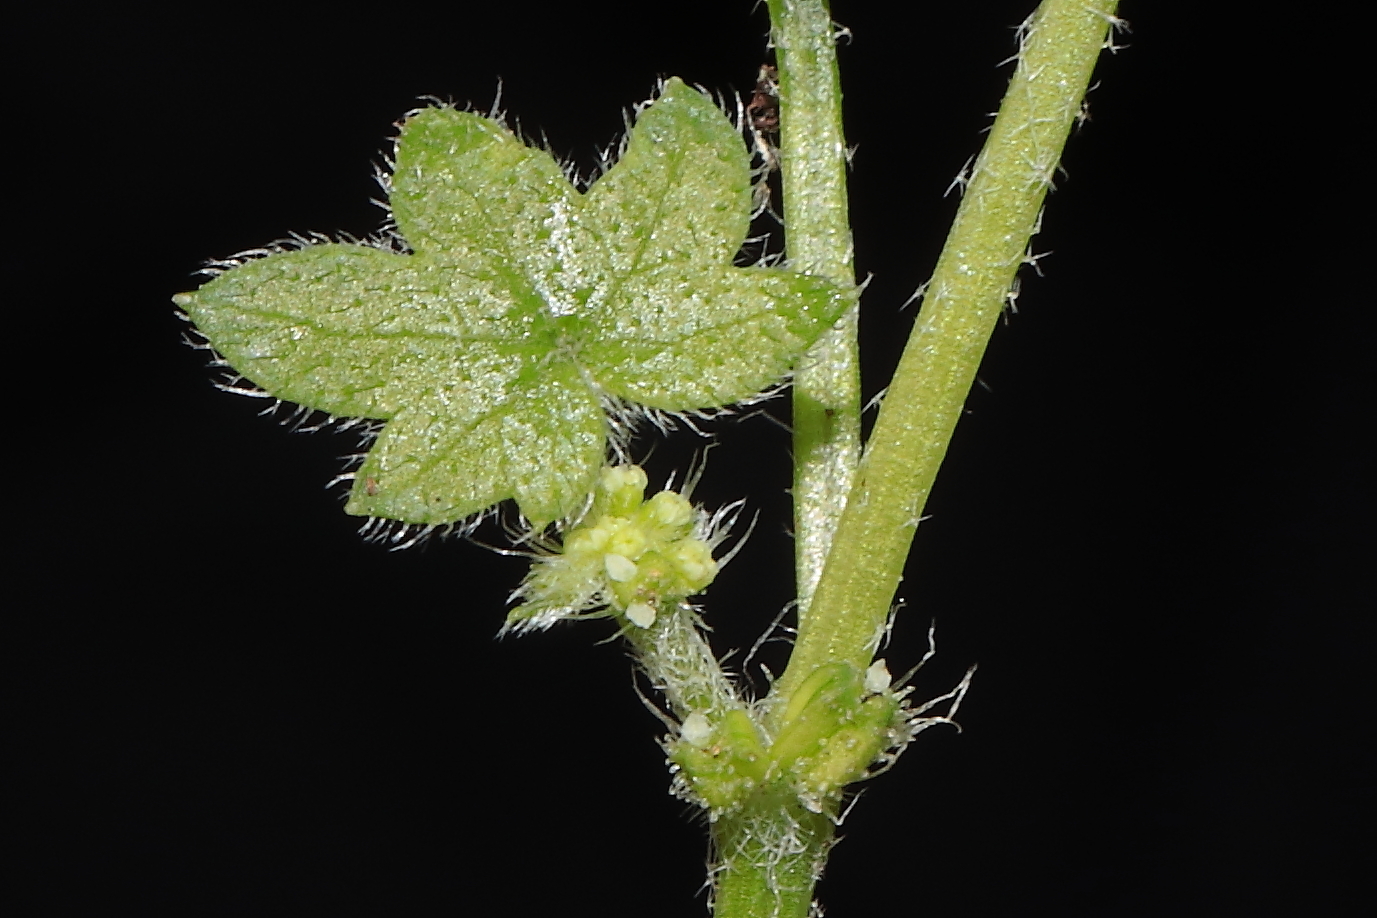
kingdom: Plantae
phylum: Tracheophyta
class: Magnoliopsida
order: Apiales
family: Apiaceae
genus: Bowlesia
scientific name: Bowlesia tenella
